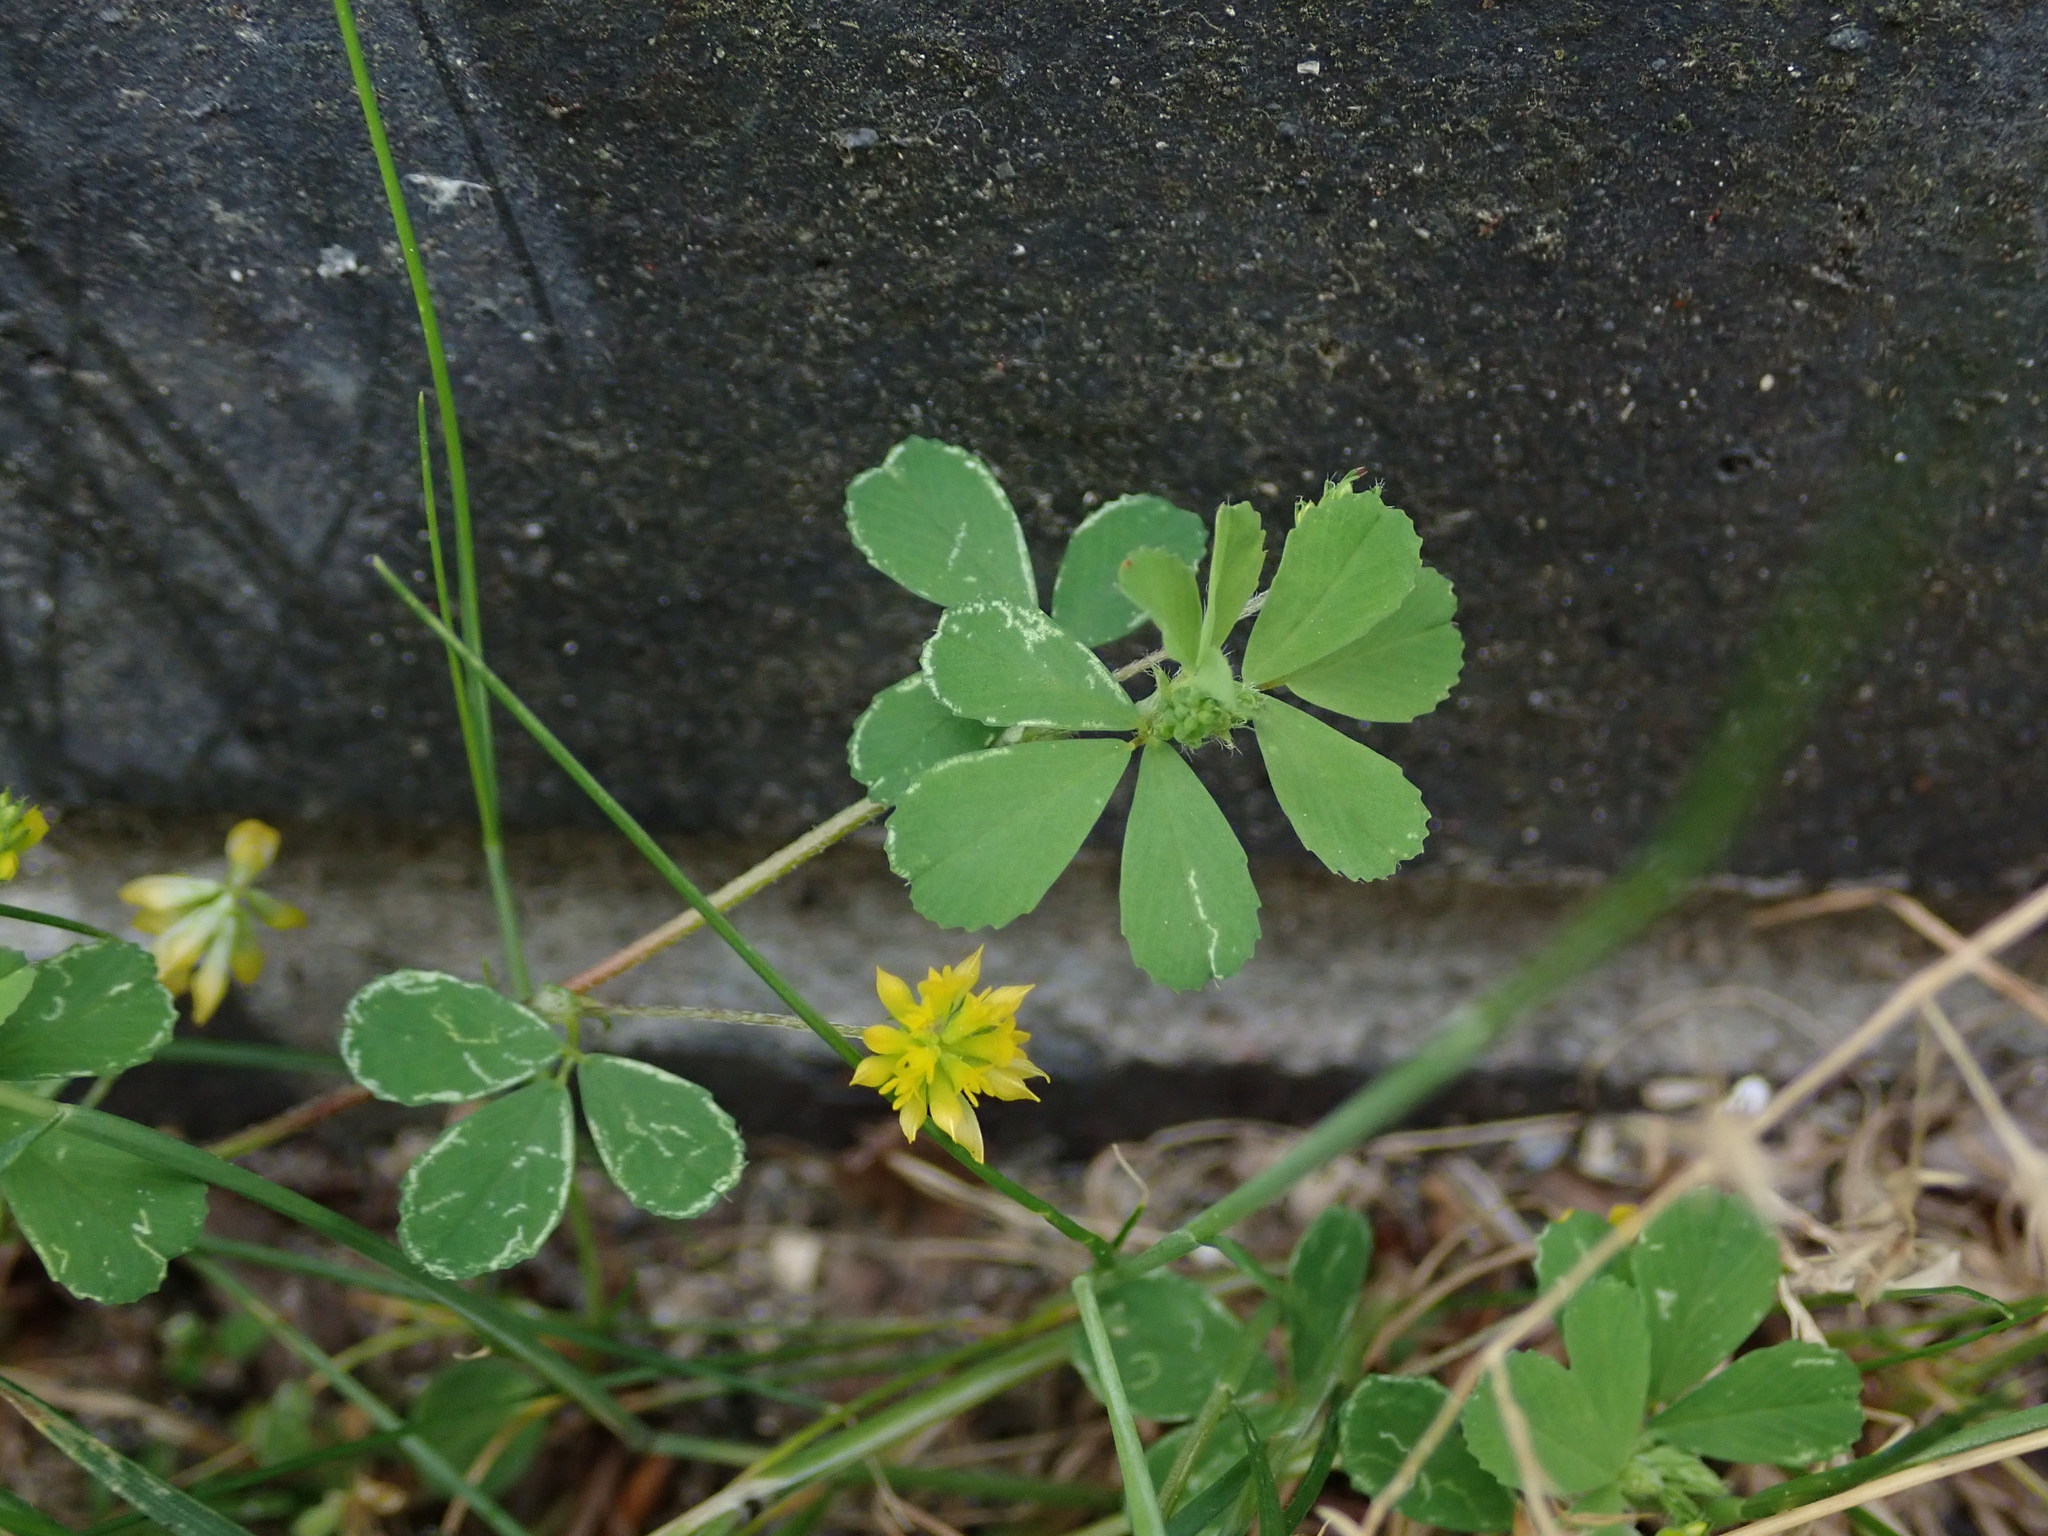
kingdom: Plantae
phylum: Tracheophyta
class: Magnoliopsida
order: Fabales
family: Fabaceae
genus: Trifolium
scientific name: Trifolium dubium
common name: Suckling clover
